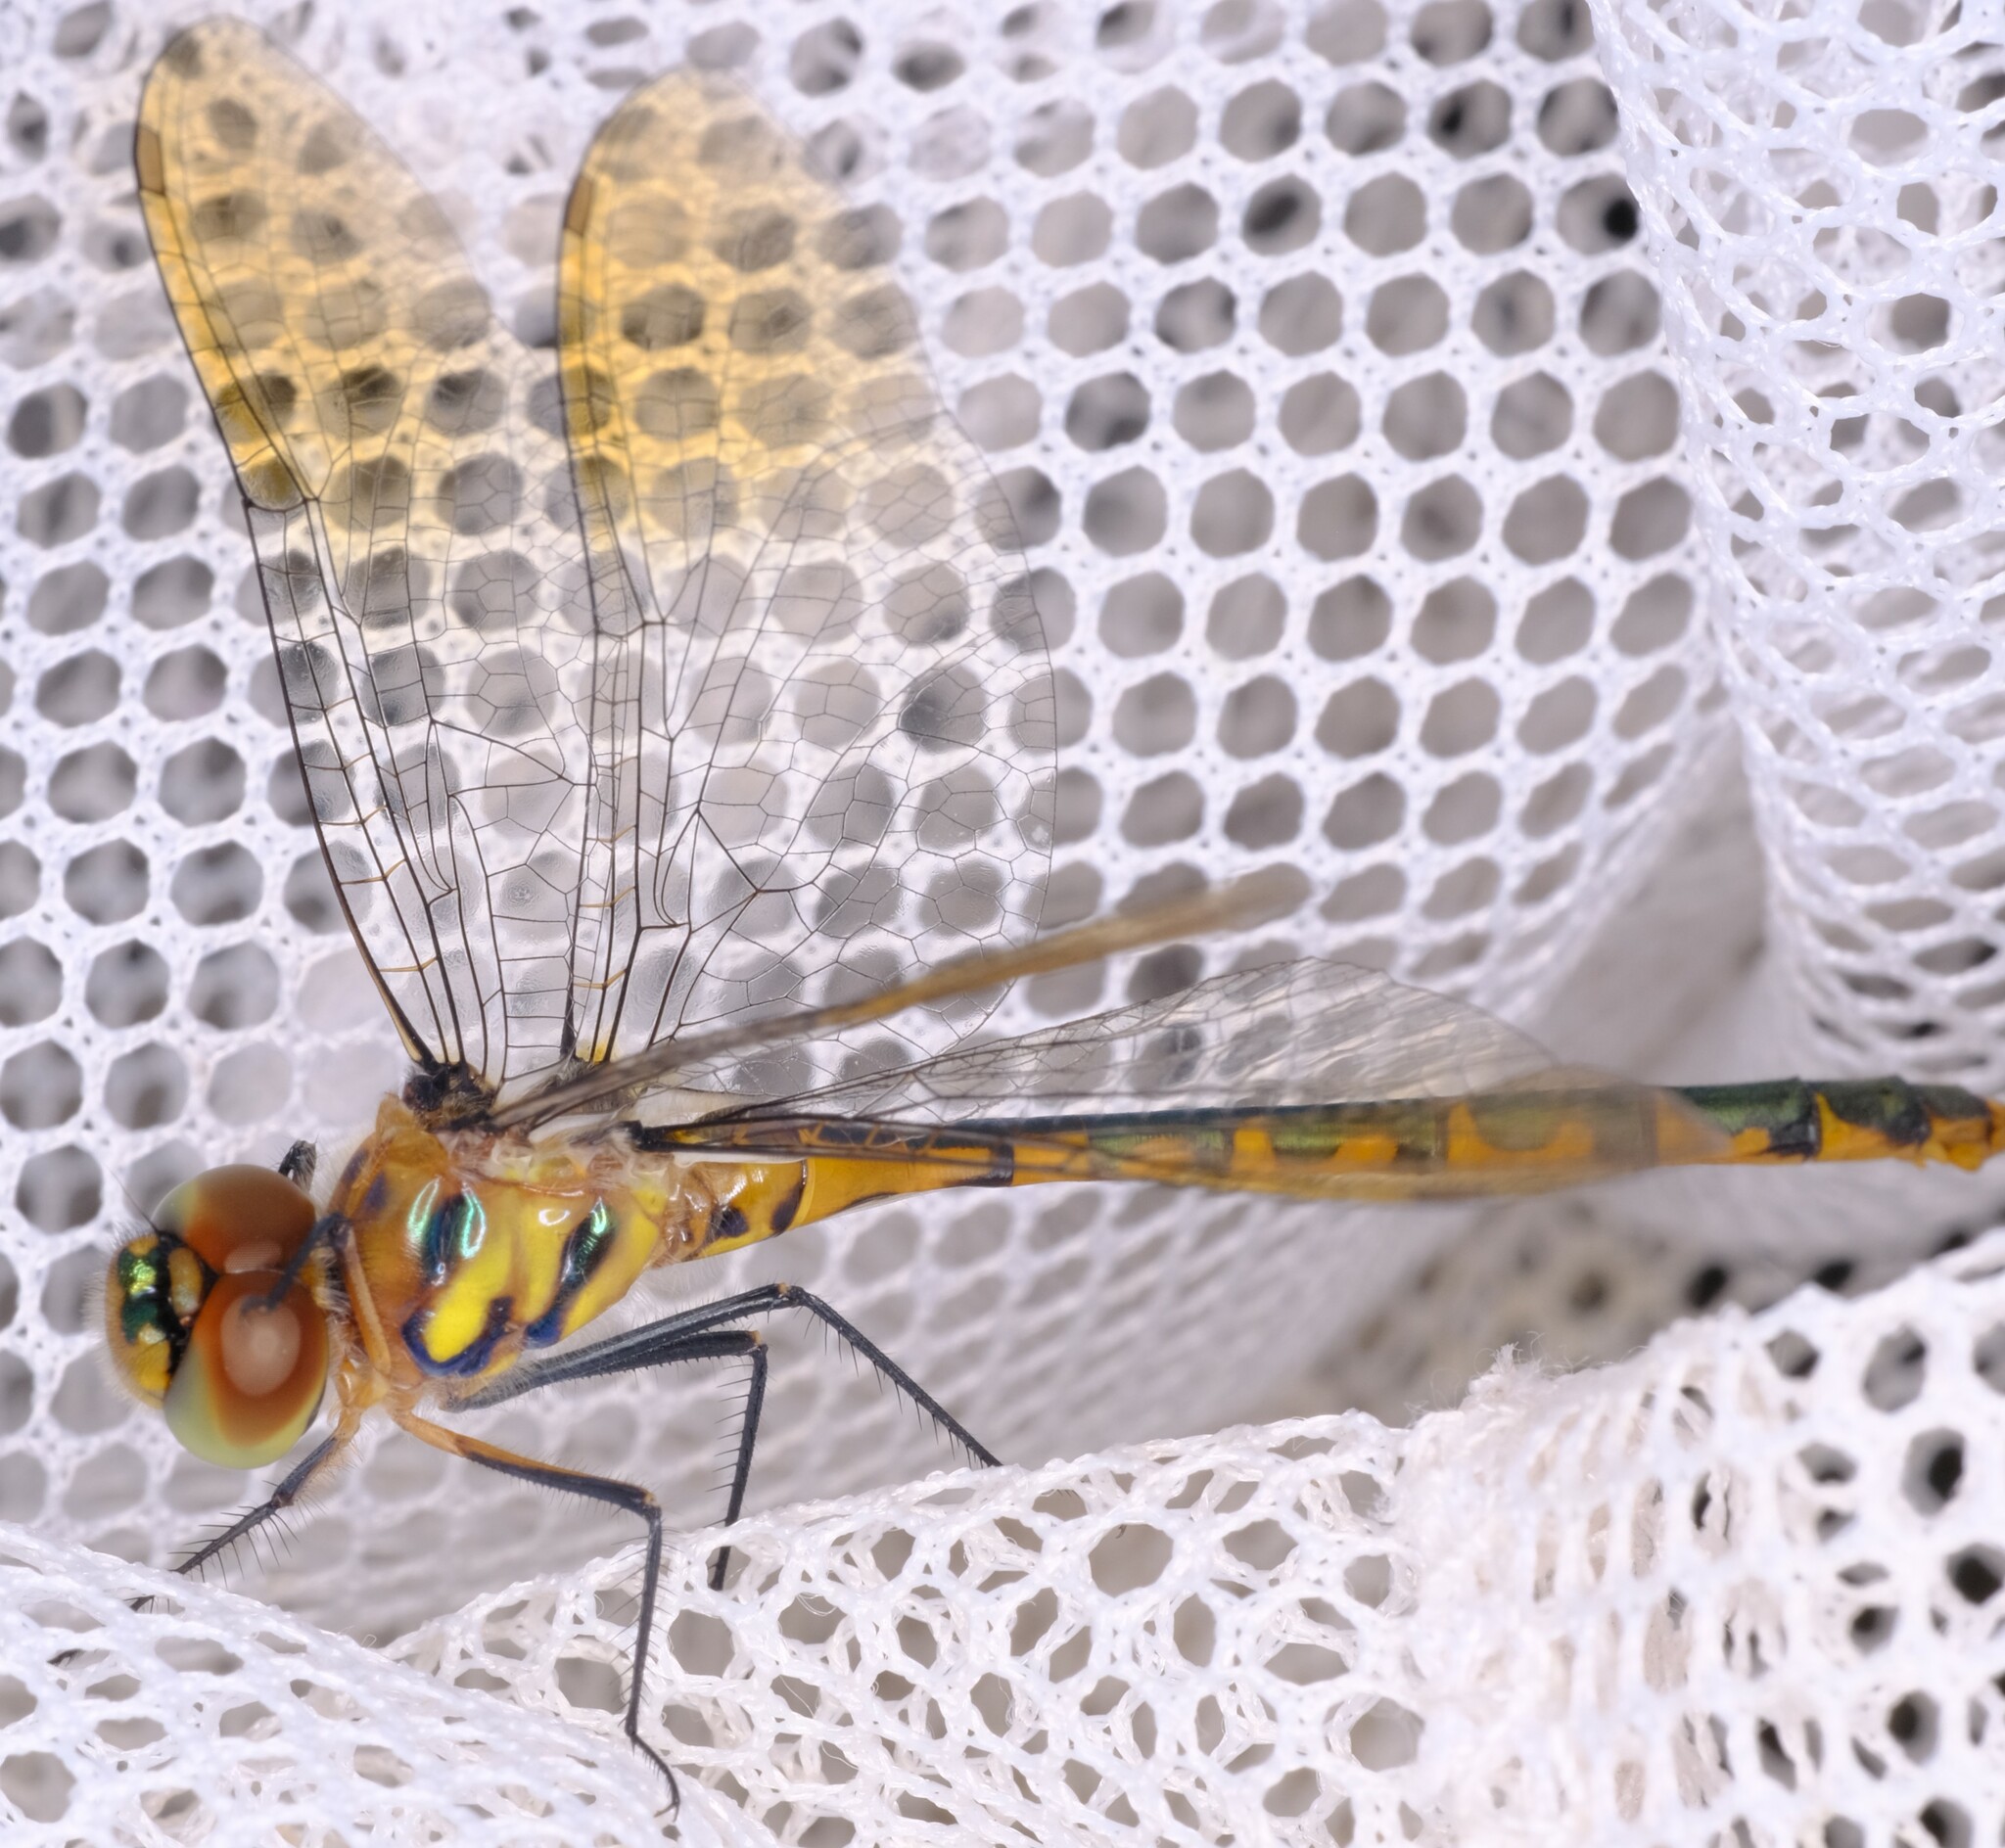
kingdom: Animalia
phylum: Arthropoda
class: Insecta
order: Odonata
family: Corduliidae
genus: Hemicordulia
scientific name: Hemicordulia australiae
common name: Sentry dragonfly
